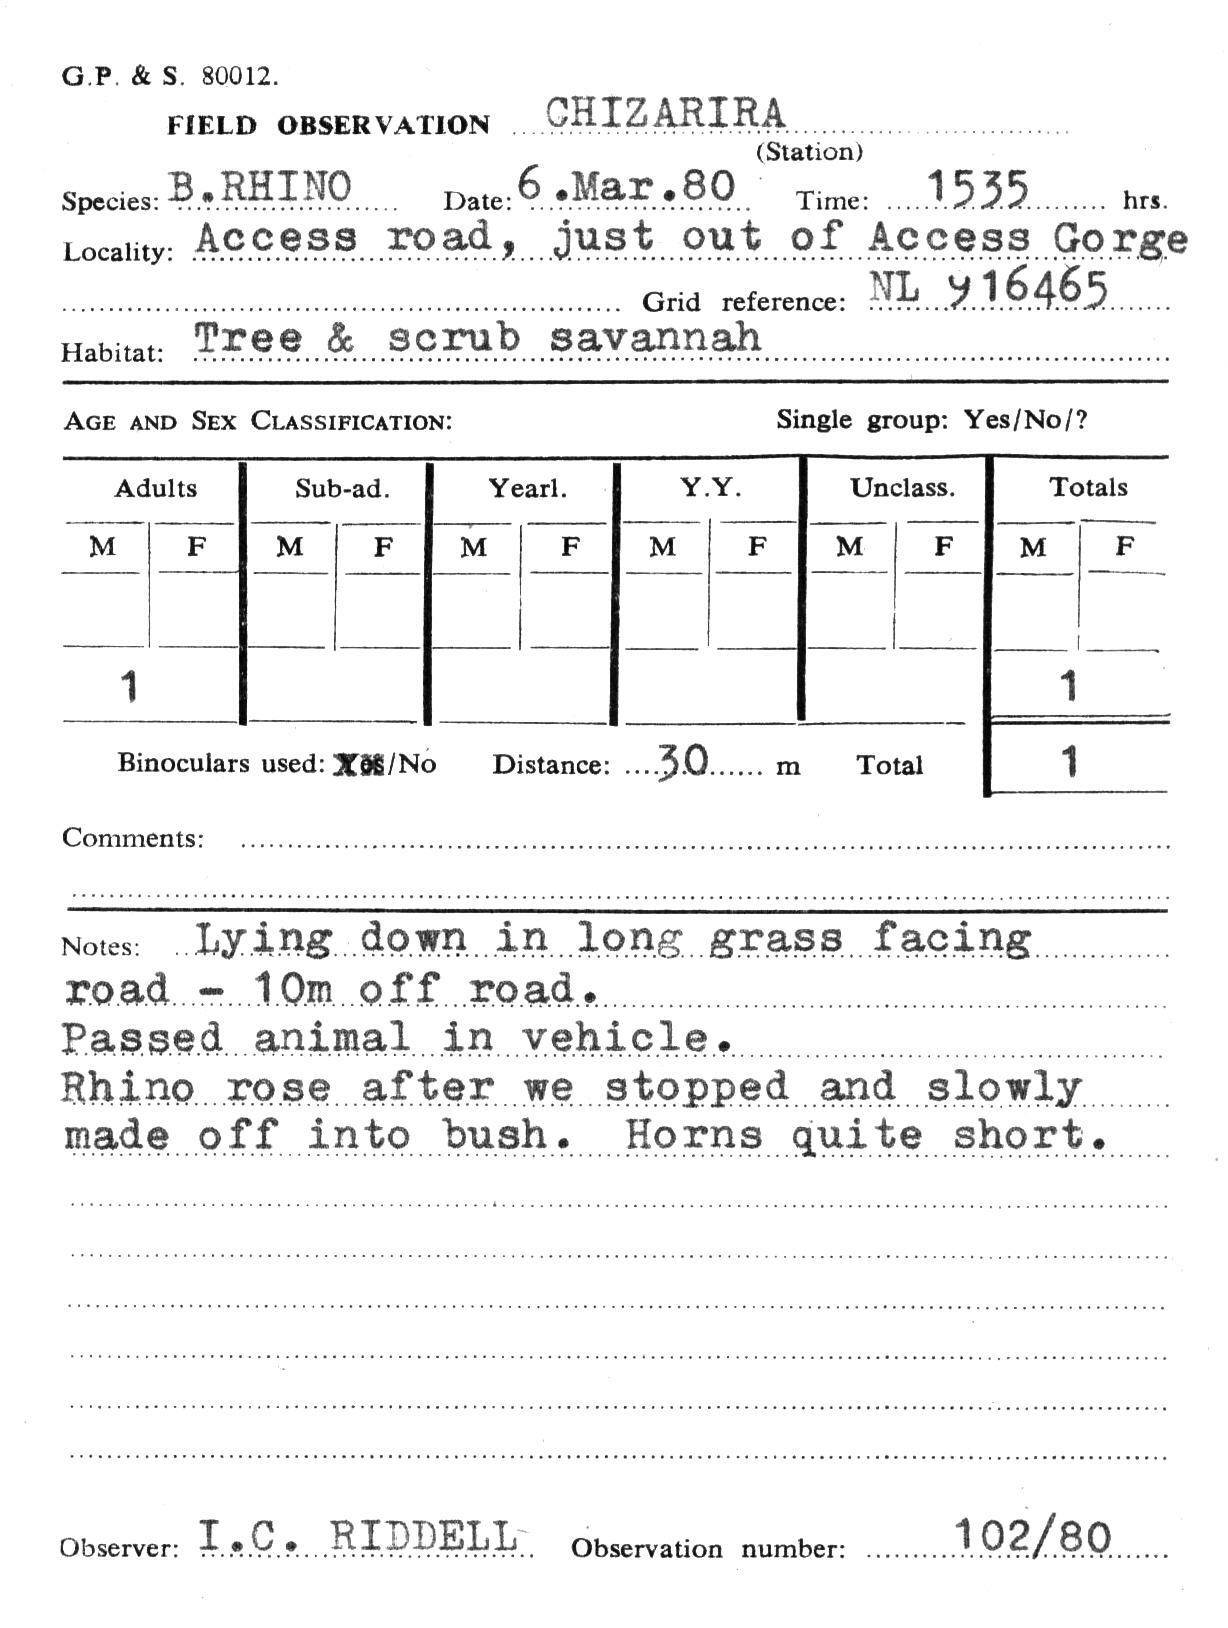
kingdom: Animalia
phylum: Chordata
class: Mammalia
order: Perissodactyla
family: Rhinocerotidae
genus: Diceros
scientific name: Diceros bicornis
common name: Black rhinoceros
